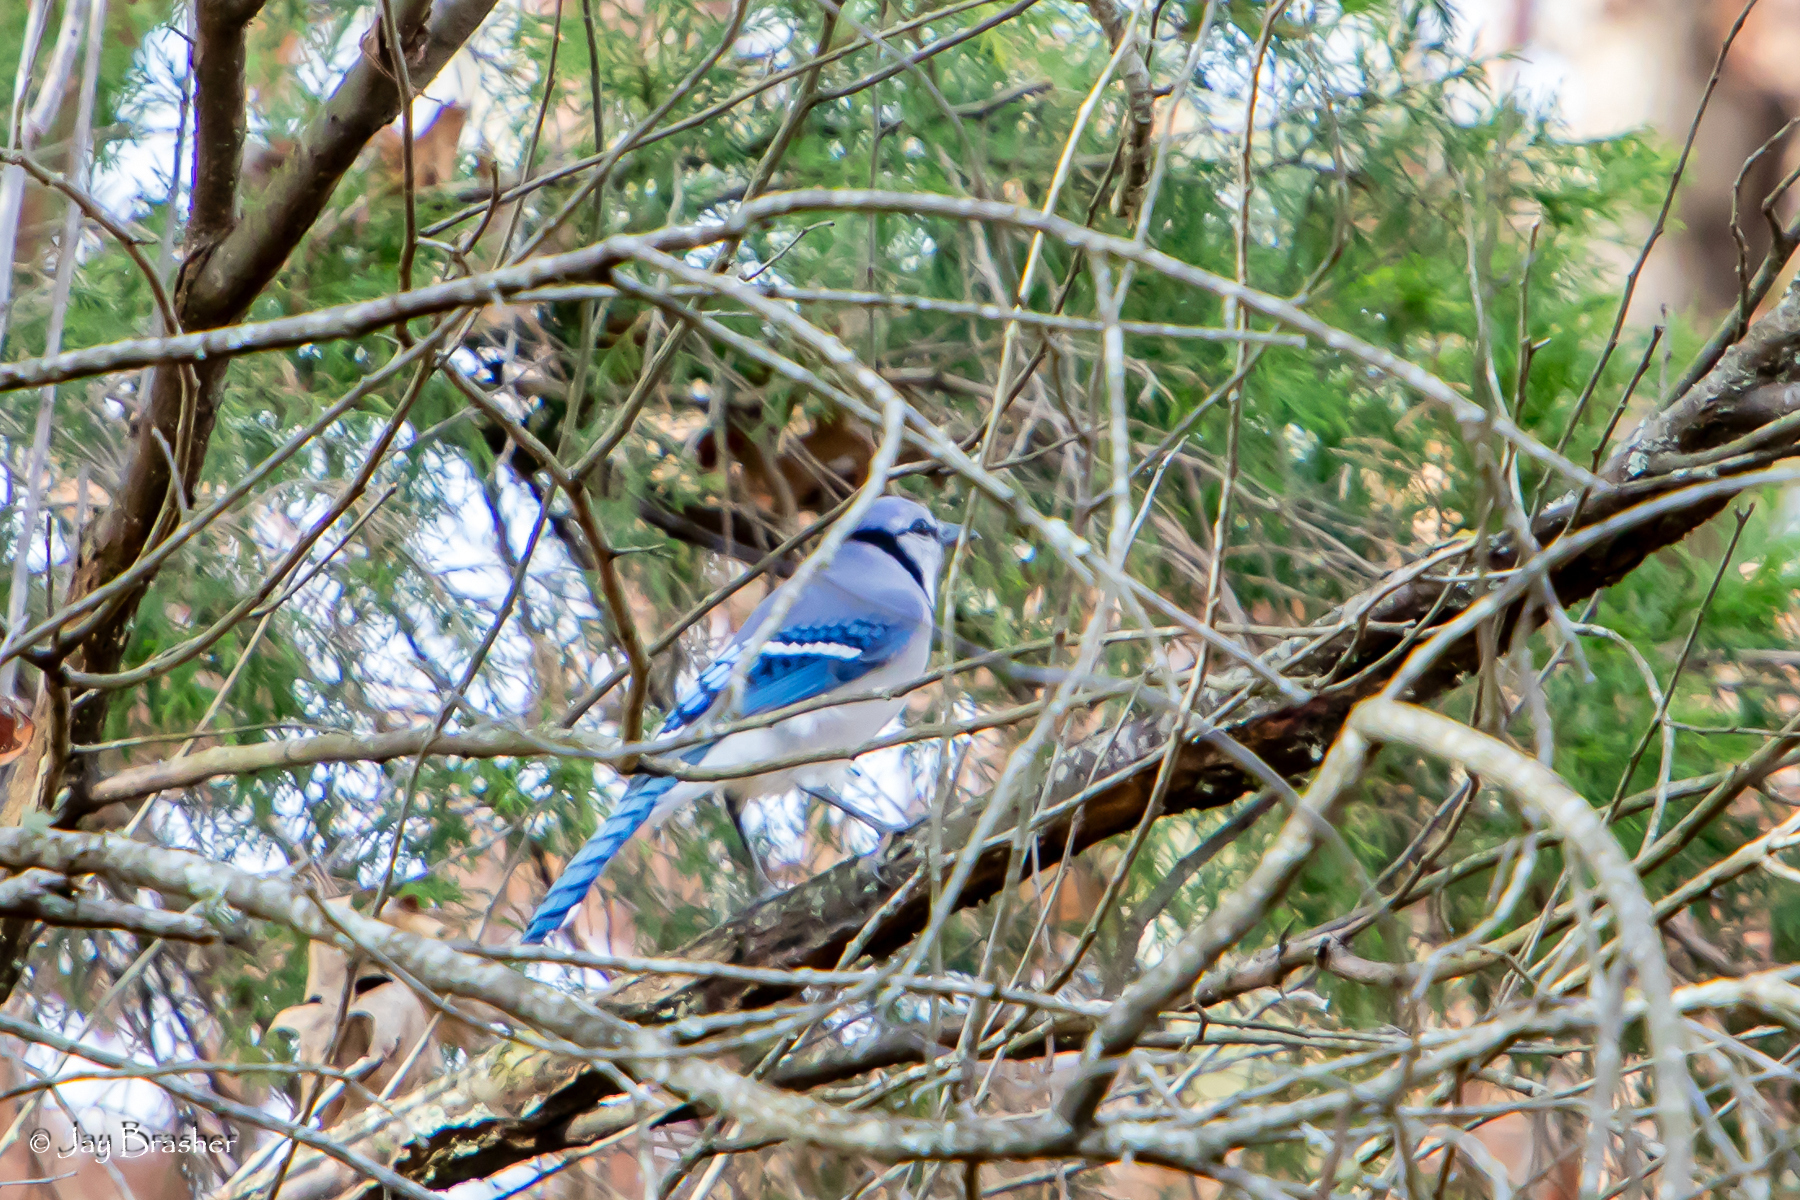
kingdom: Animalia
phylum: Chordata
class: Aves
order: Passeriformes
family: Corvidae
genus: Cyanocitta
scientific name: Cyanocitta cristata
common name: Blue jay
